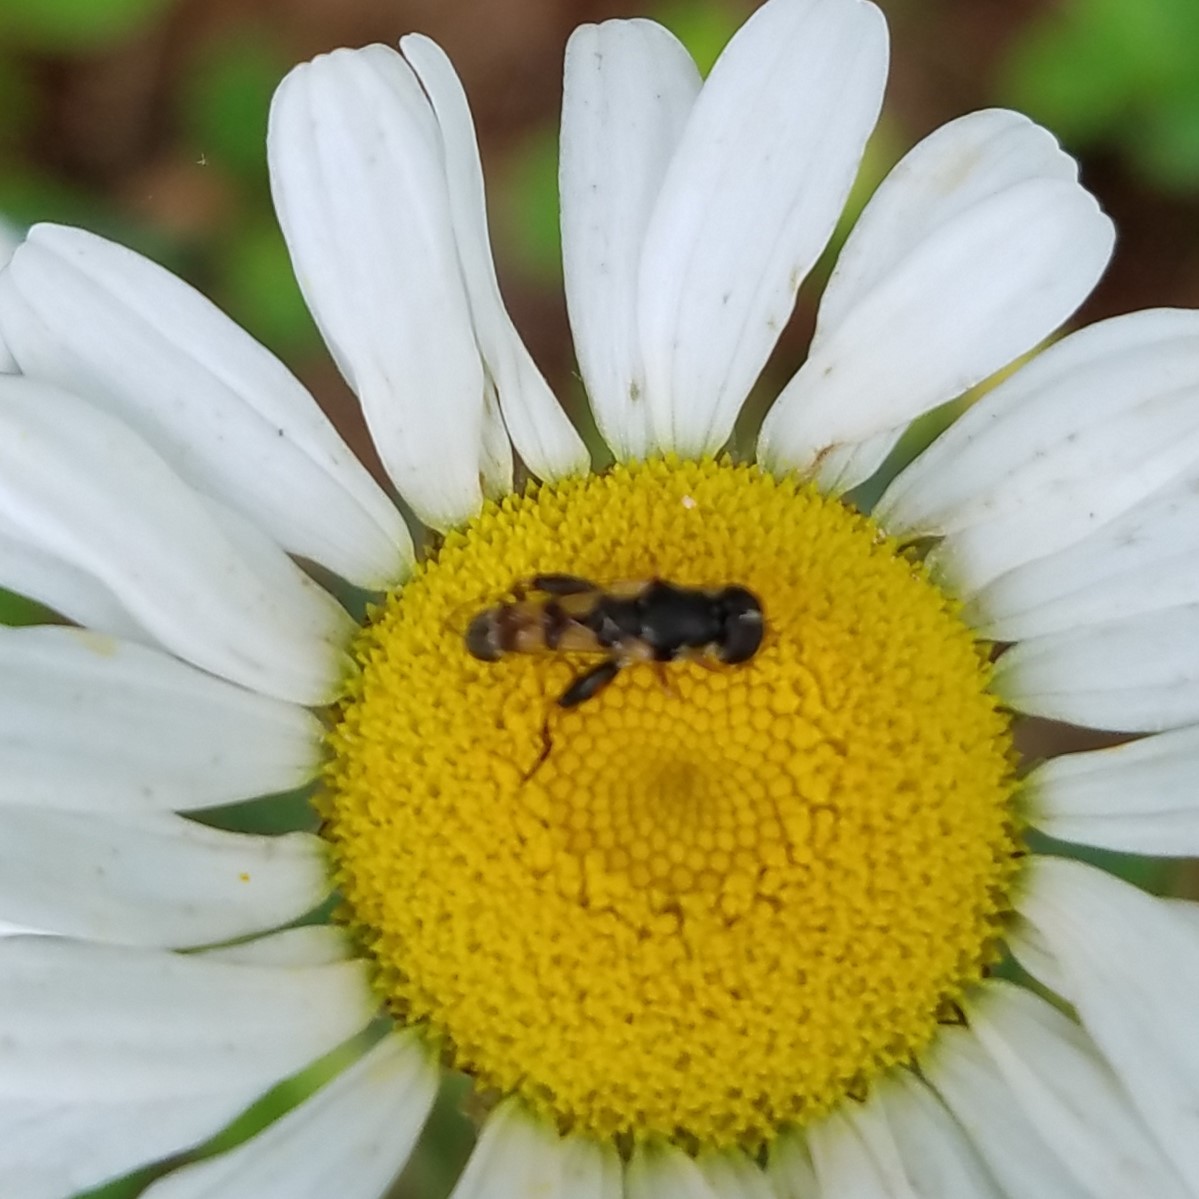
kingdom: Animalia
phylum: Arthropoda
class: Insecta
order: Diptera
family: Syrphidae
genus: Syritta
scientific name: Syritta pipiens
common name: Hover fly
